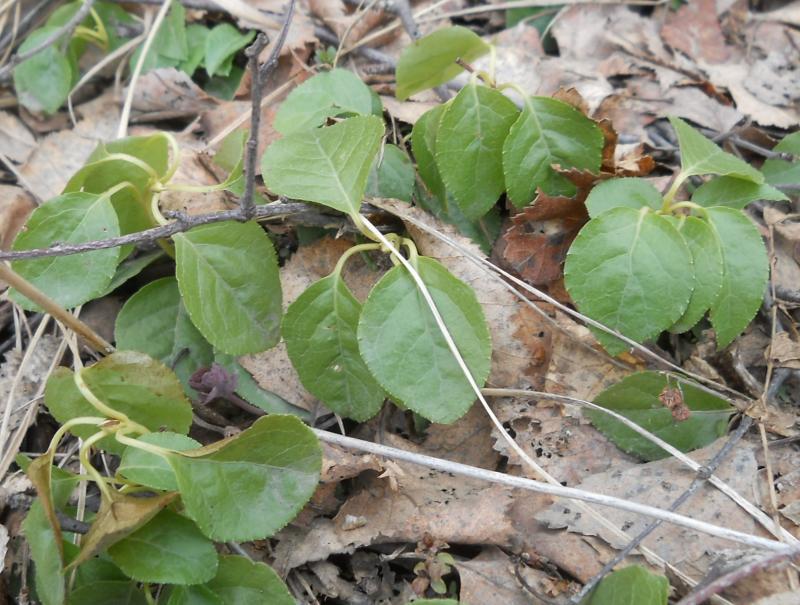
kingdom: Plantae
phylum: Tracheophyta
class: Magnoliopsida
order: Ericales
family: Ericaceae
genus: Orthilia
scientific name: Orthilia secunda
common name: One-sided orthilia
